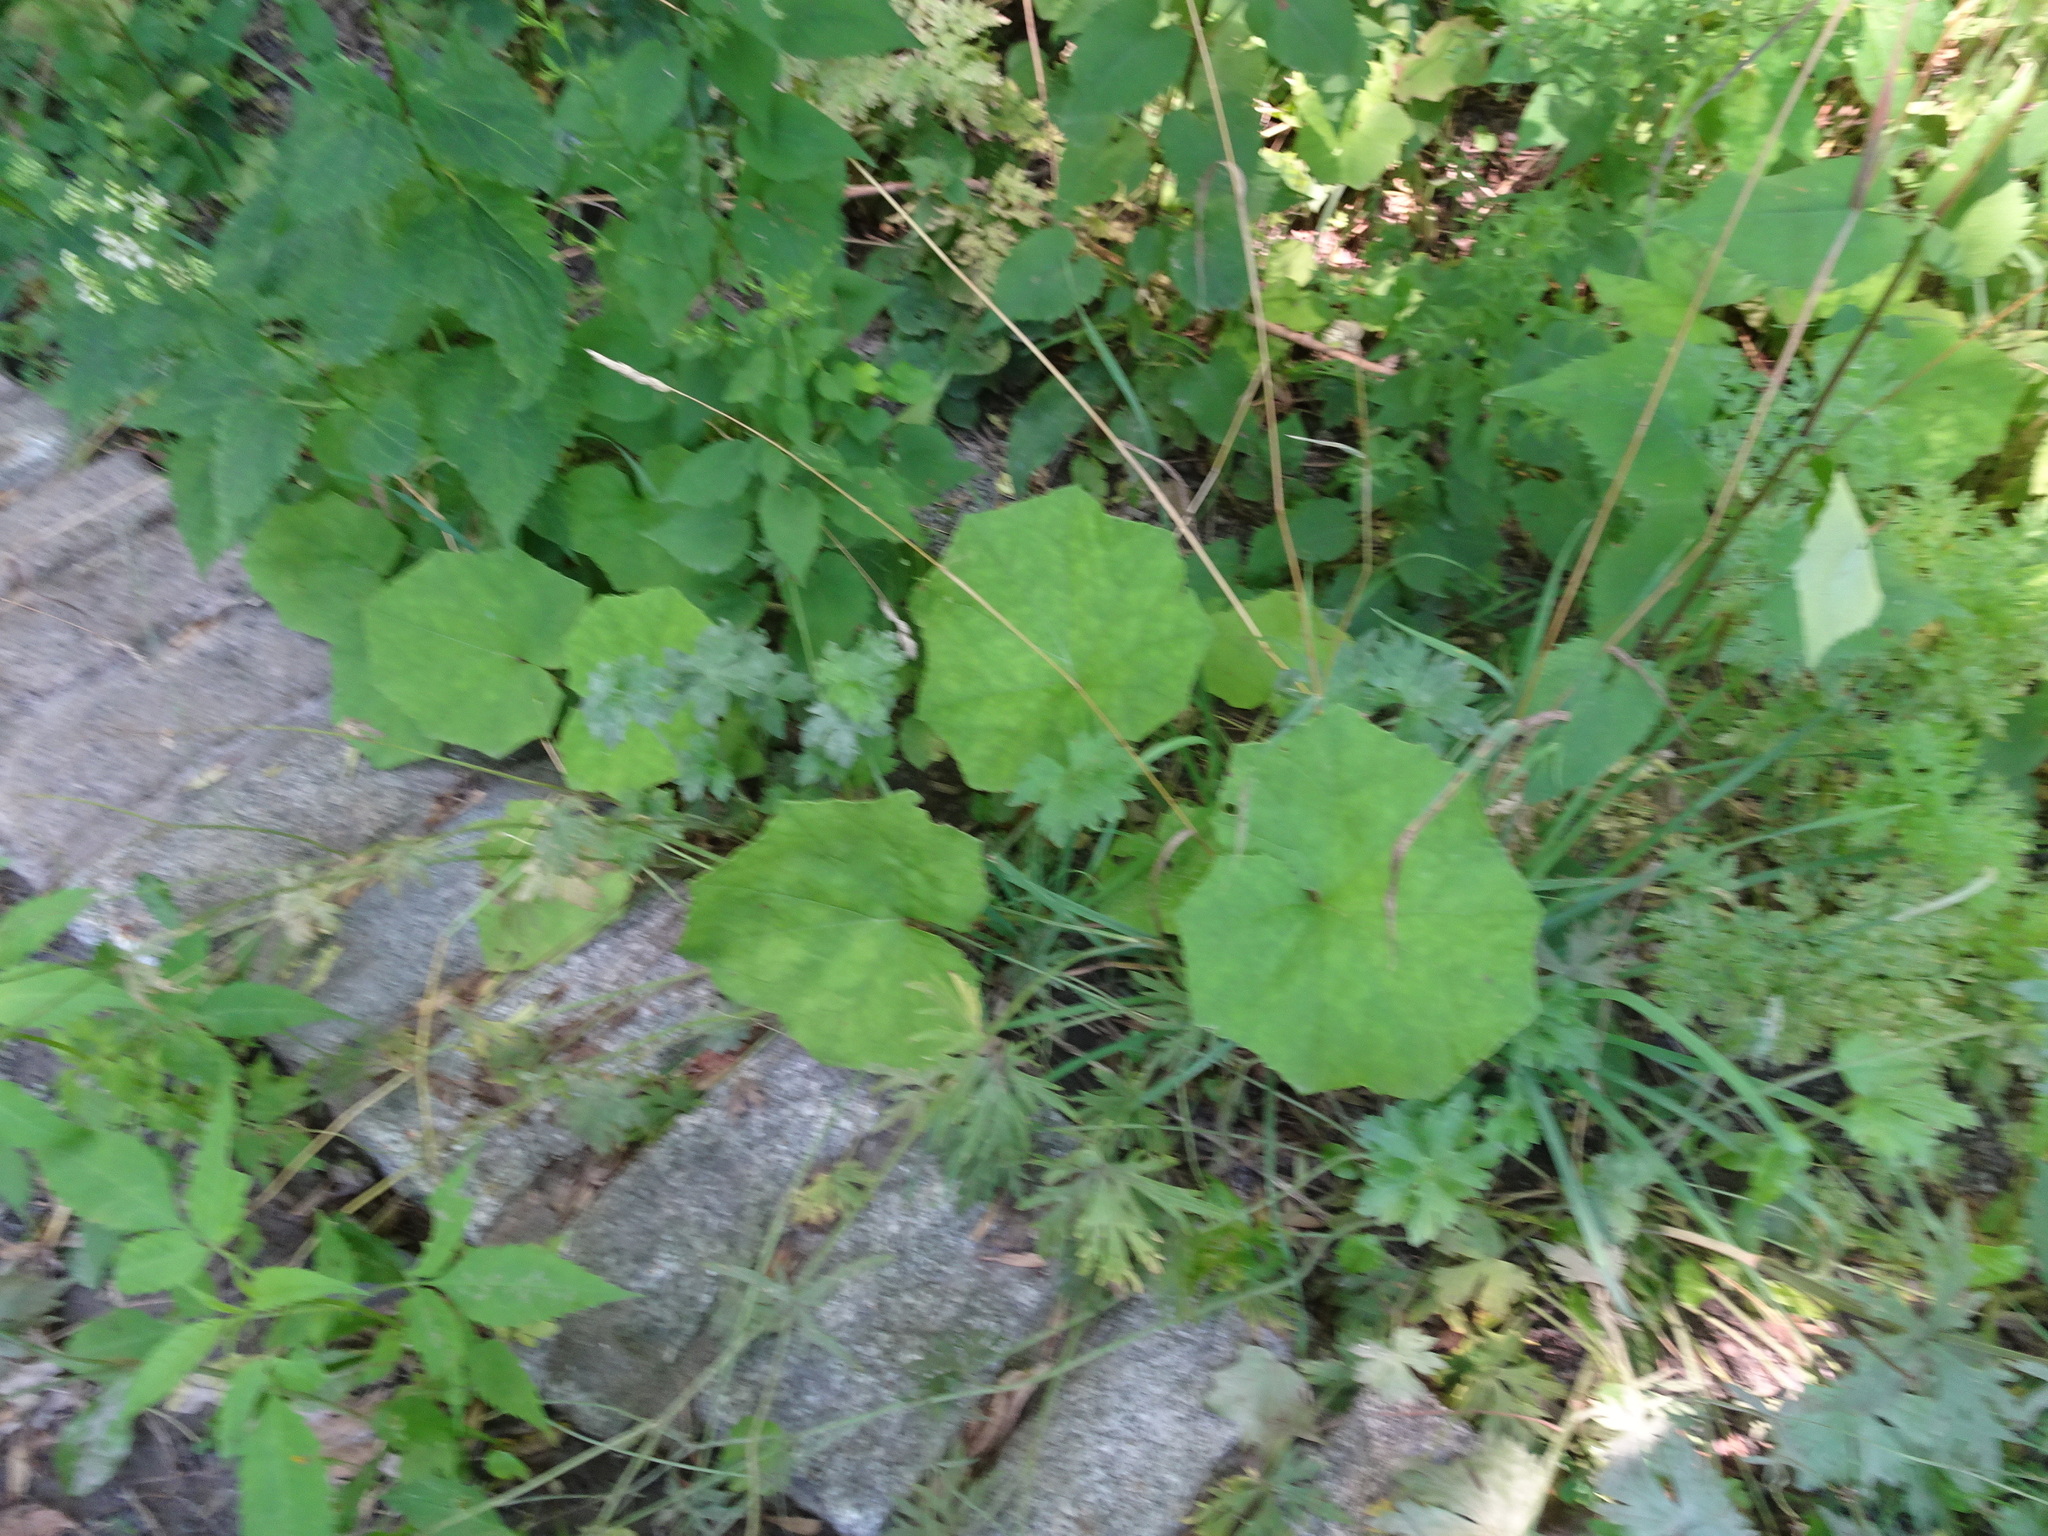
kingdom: Plantae
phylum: Tracheophyta
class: Magnoliopsida
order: Asterales
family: Asteraceae
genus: Tussilago
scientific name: Tussilago farfara
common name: Coltsfoot
